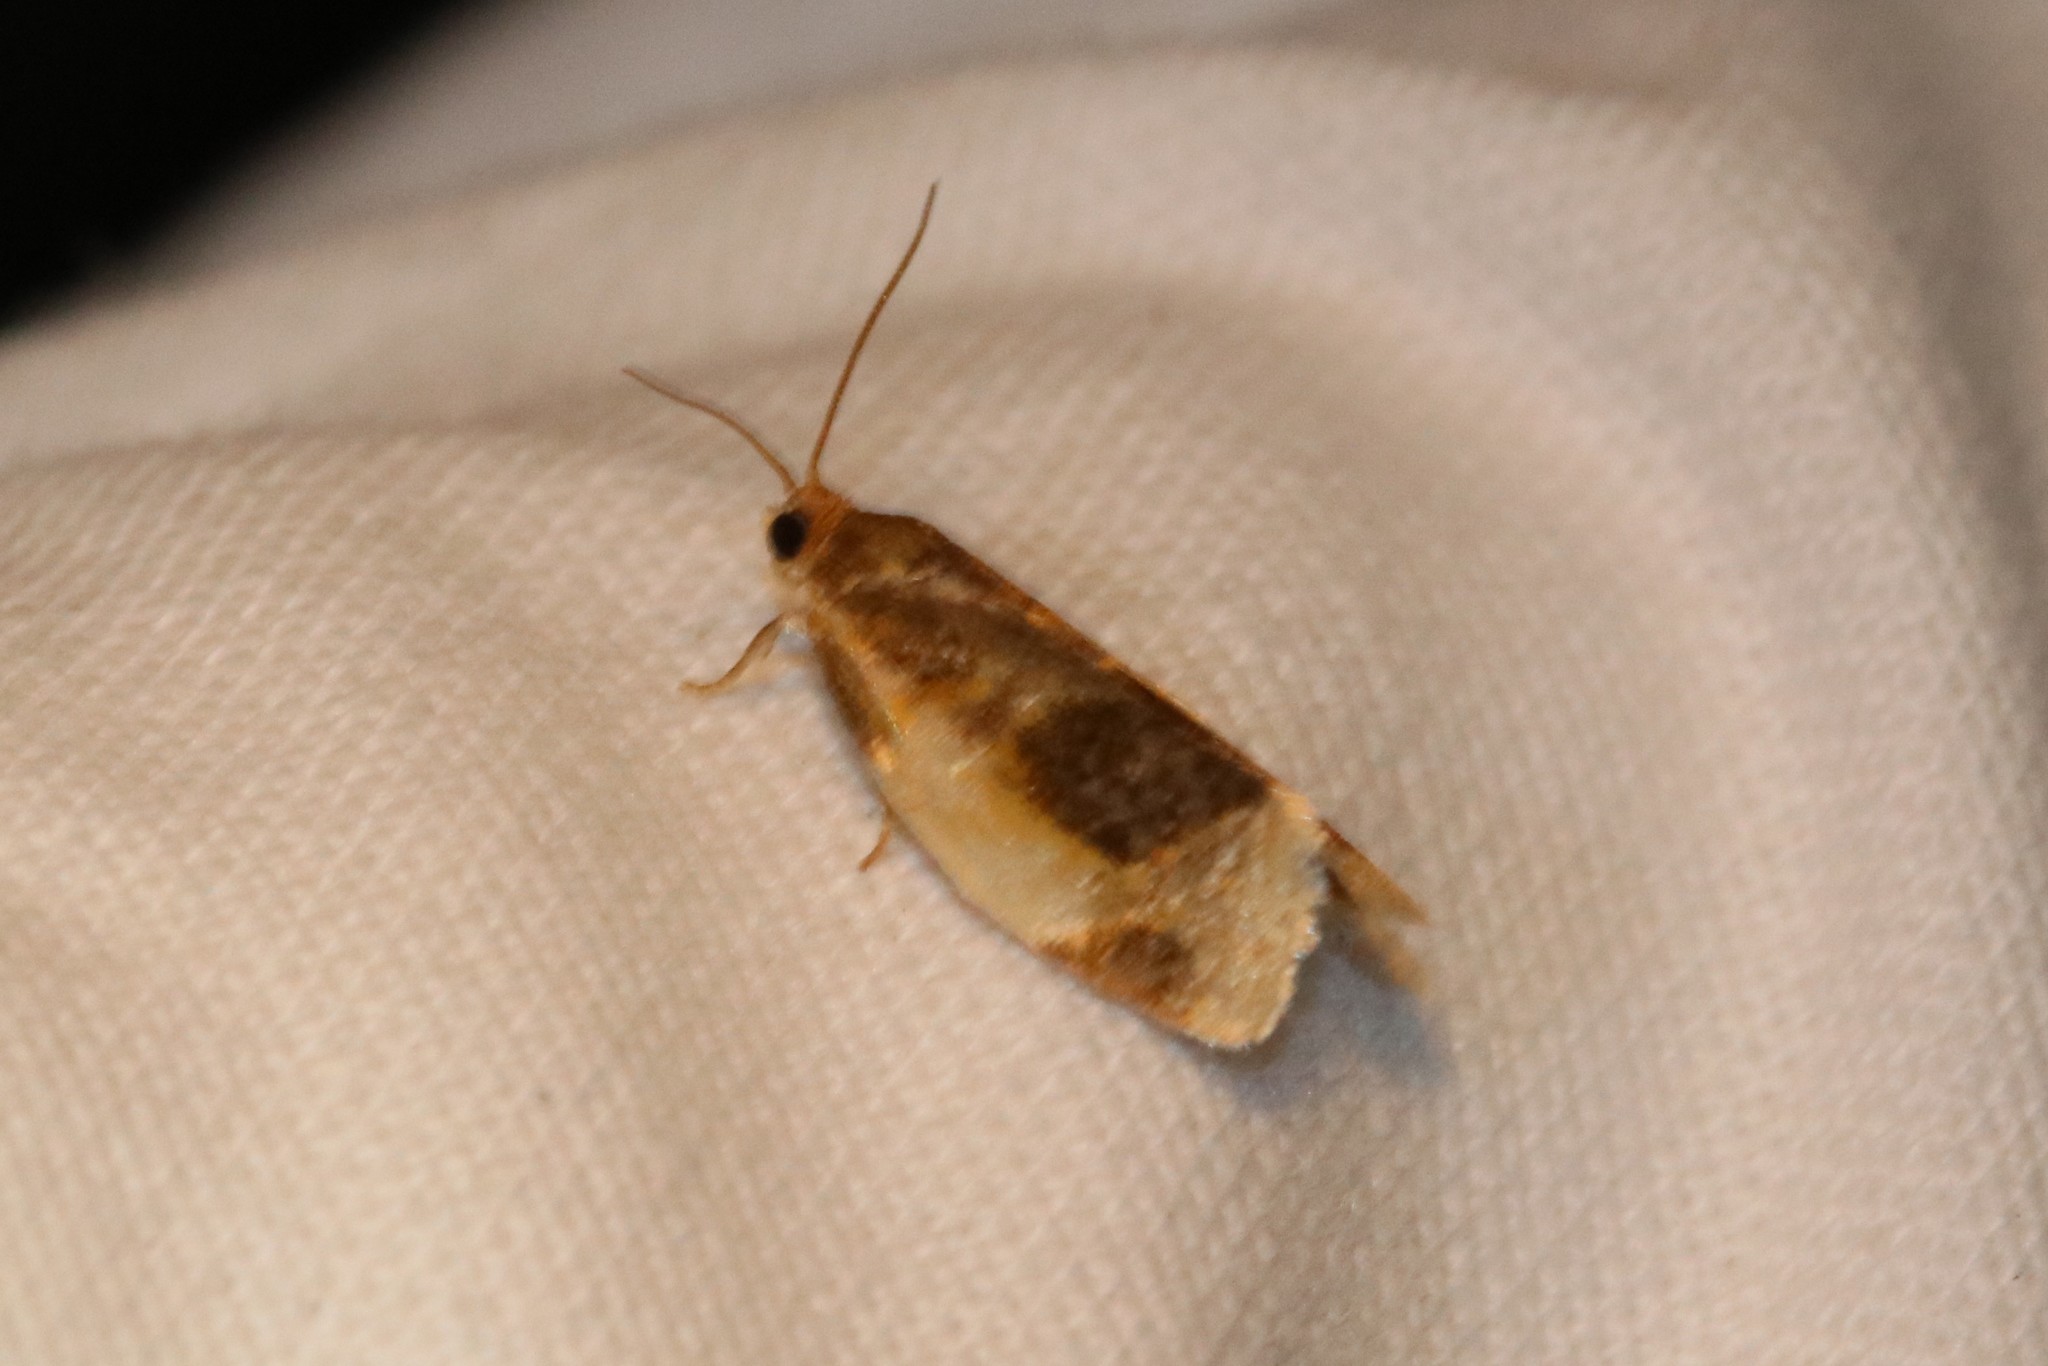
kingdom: Animalia
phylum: Arthropoda
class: Insecta
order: Lepidoptera
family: Tortricidae
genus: Clepsis
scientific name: Clepsis melaleucanus
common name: American apple tortrix
